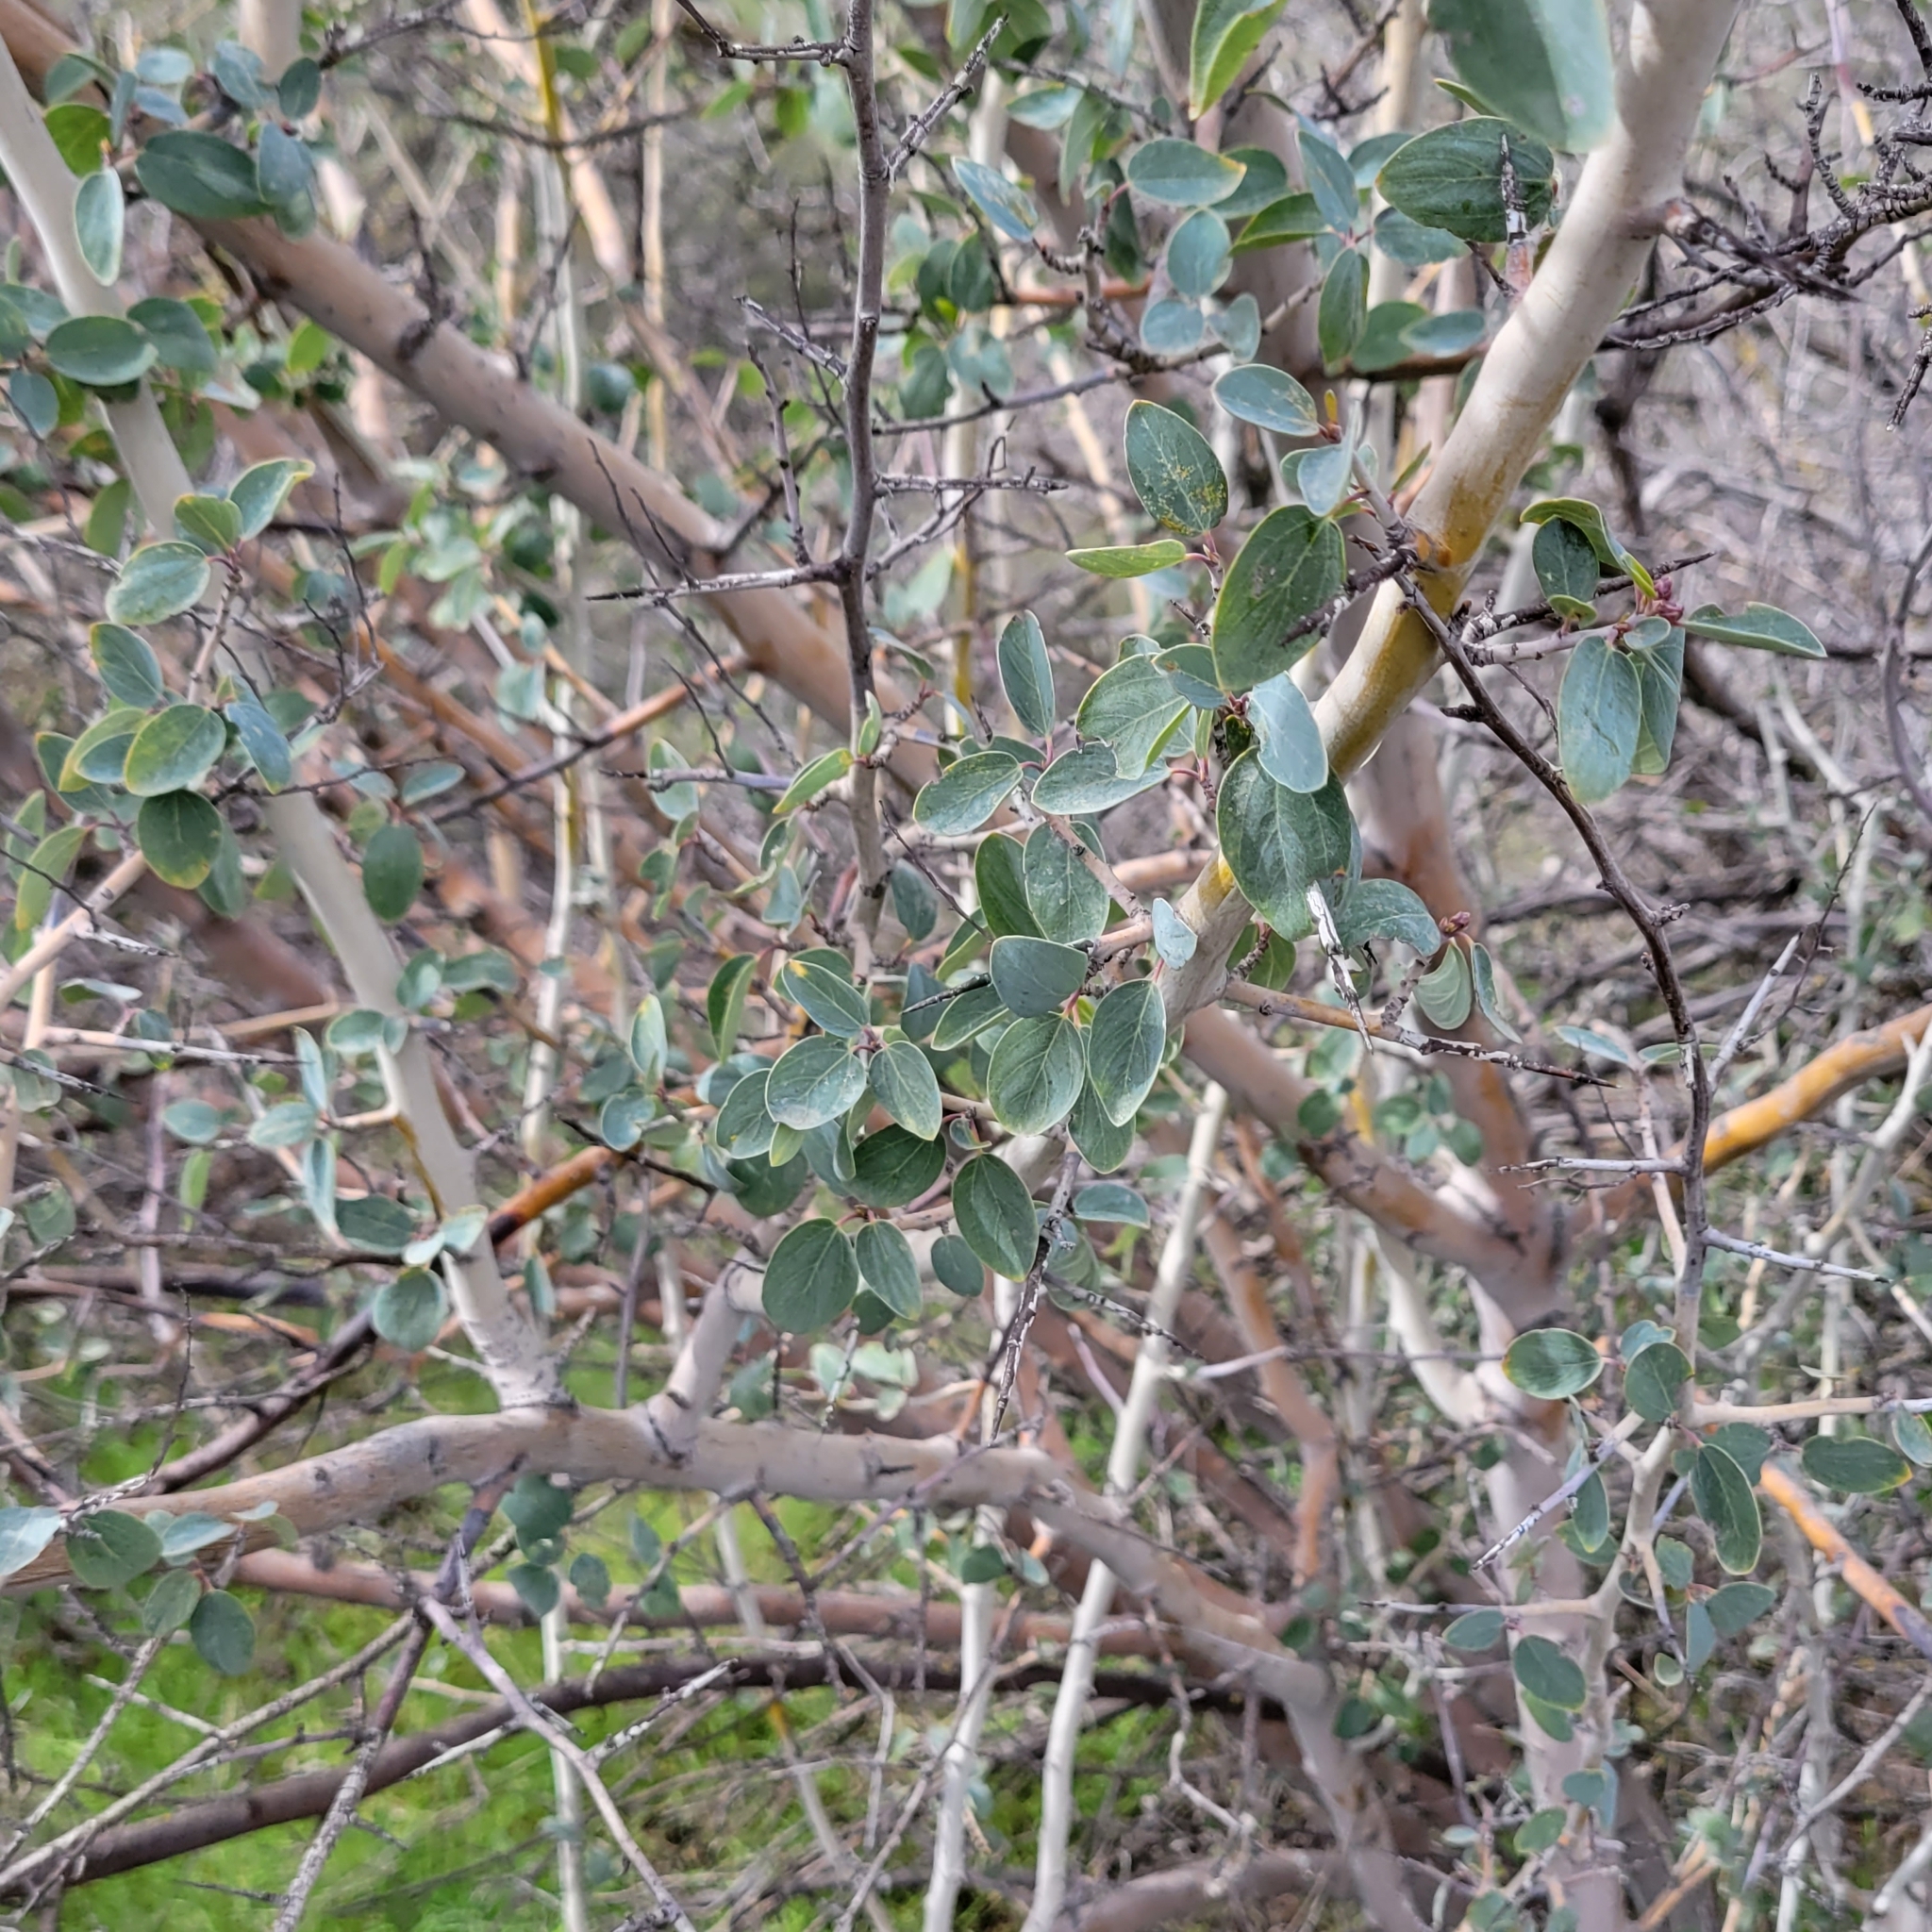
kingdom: Plantae
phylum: Tracheophyta
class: Magnoliopsida
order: Rosales
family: Rhamnaceae
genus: Ceanothus
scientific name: Ceanothus leucodermis
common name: Chaparral whitethorn
